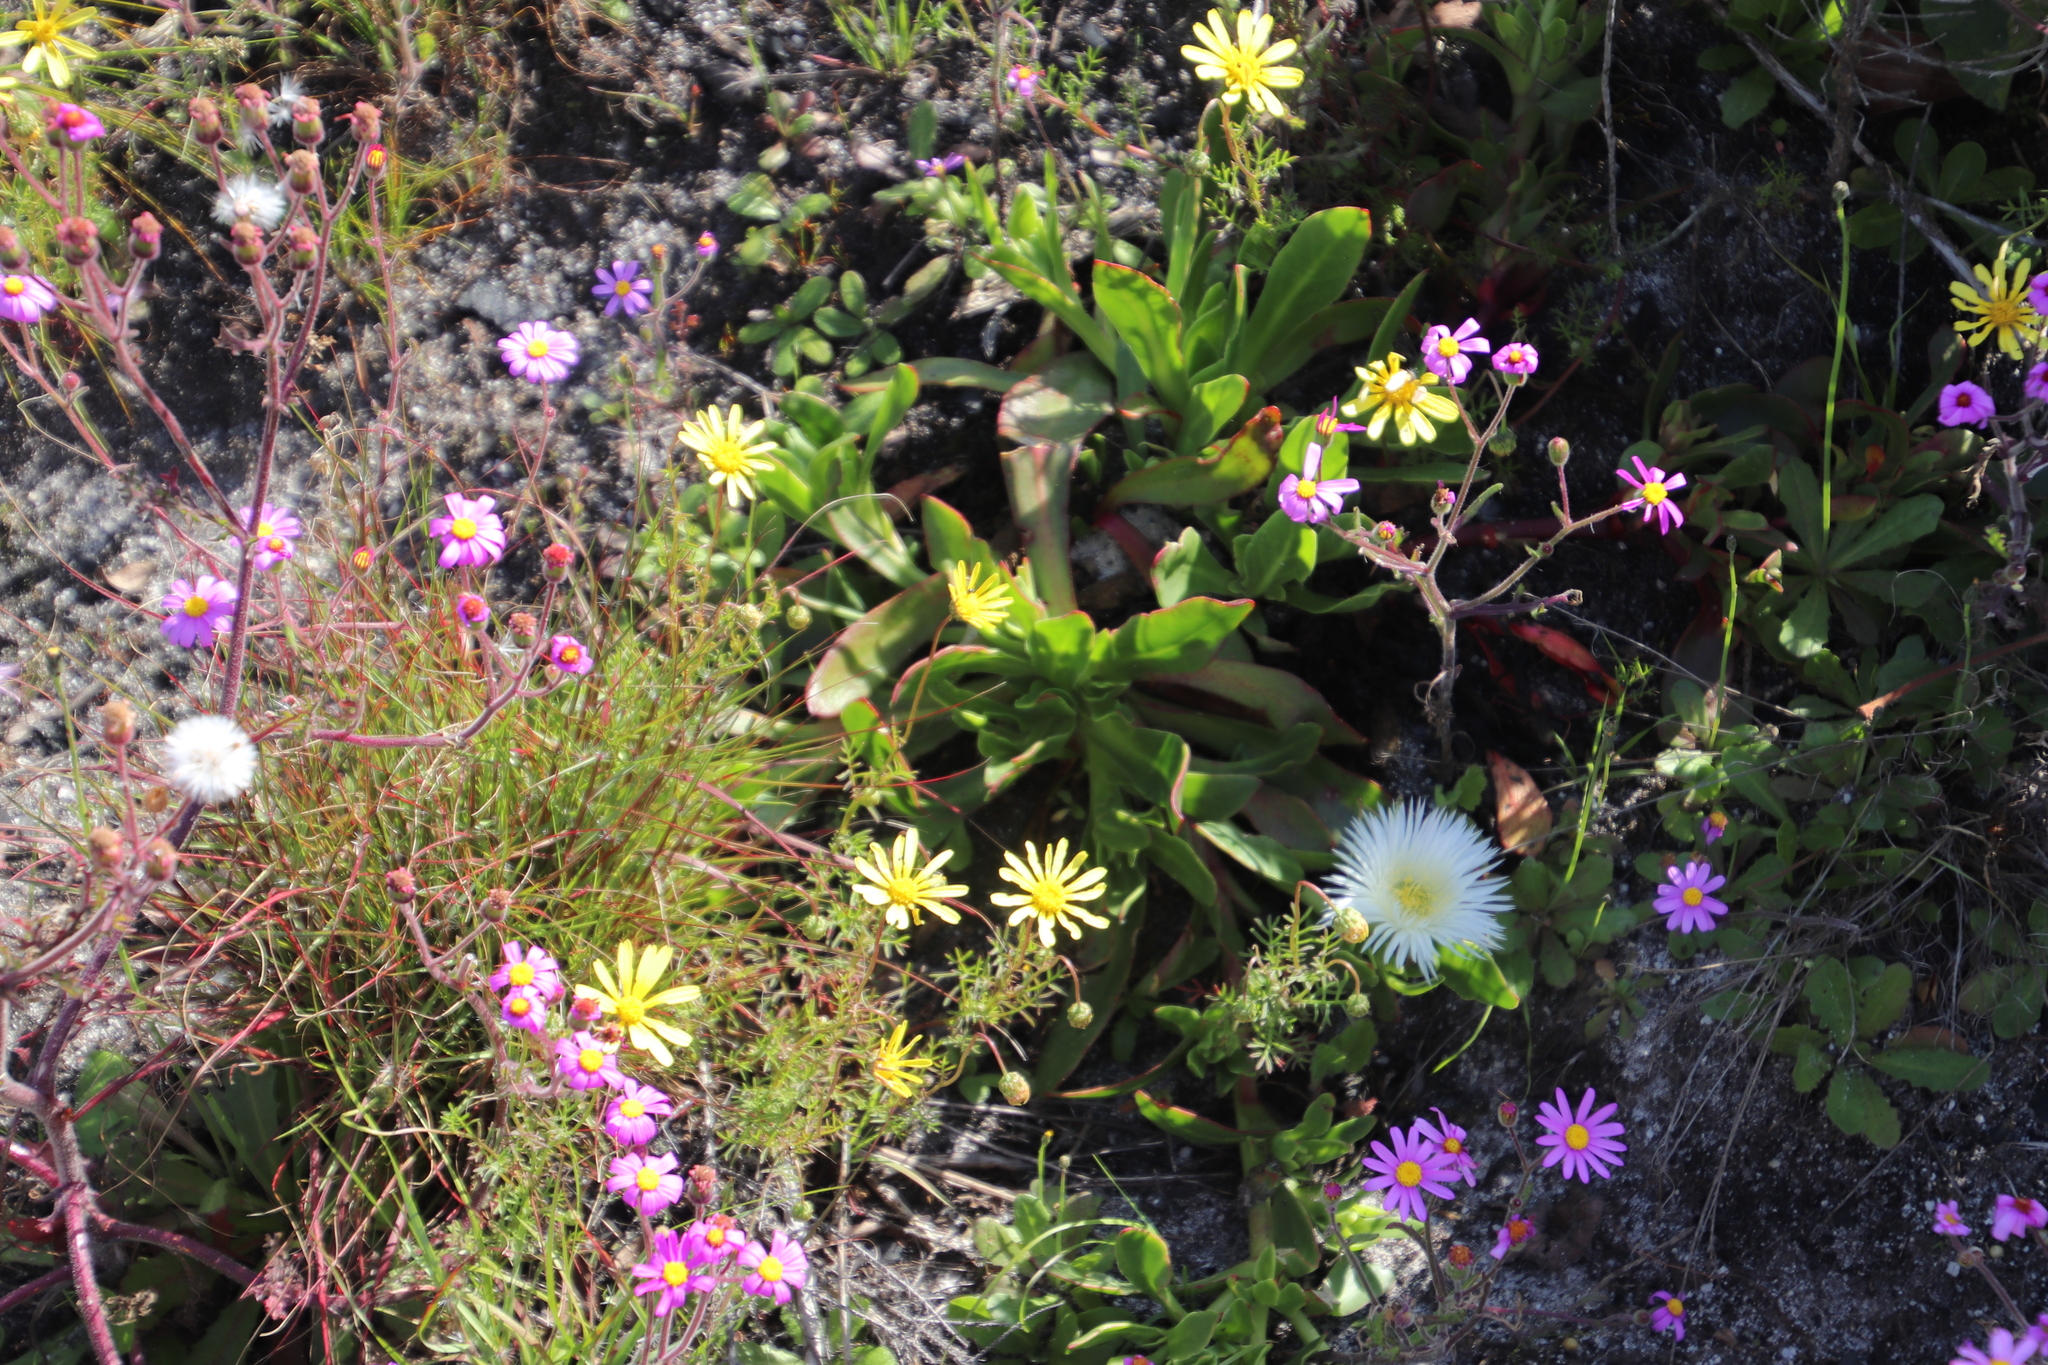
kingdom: Plantae
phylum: Tracheophyta
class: Magnoliopsida
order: Caryophyllales
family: Aizoaceae
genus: Skiatophytum
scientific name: Skiatophytum tripolium
